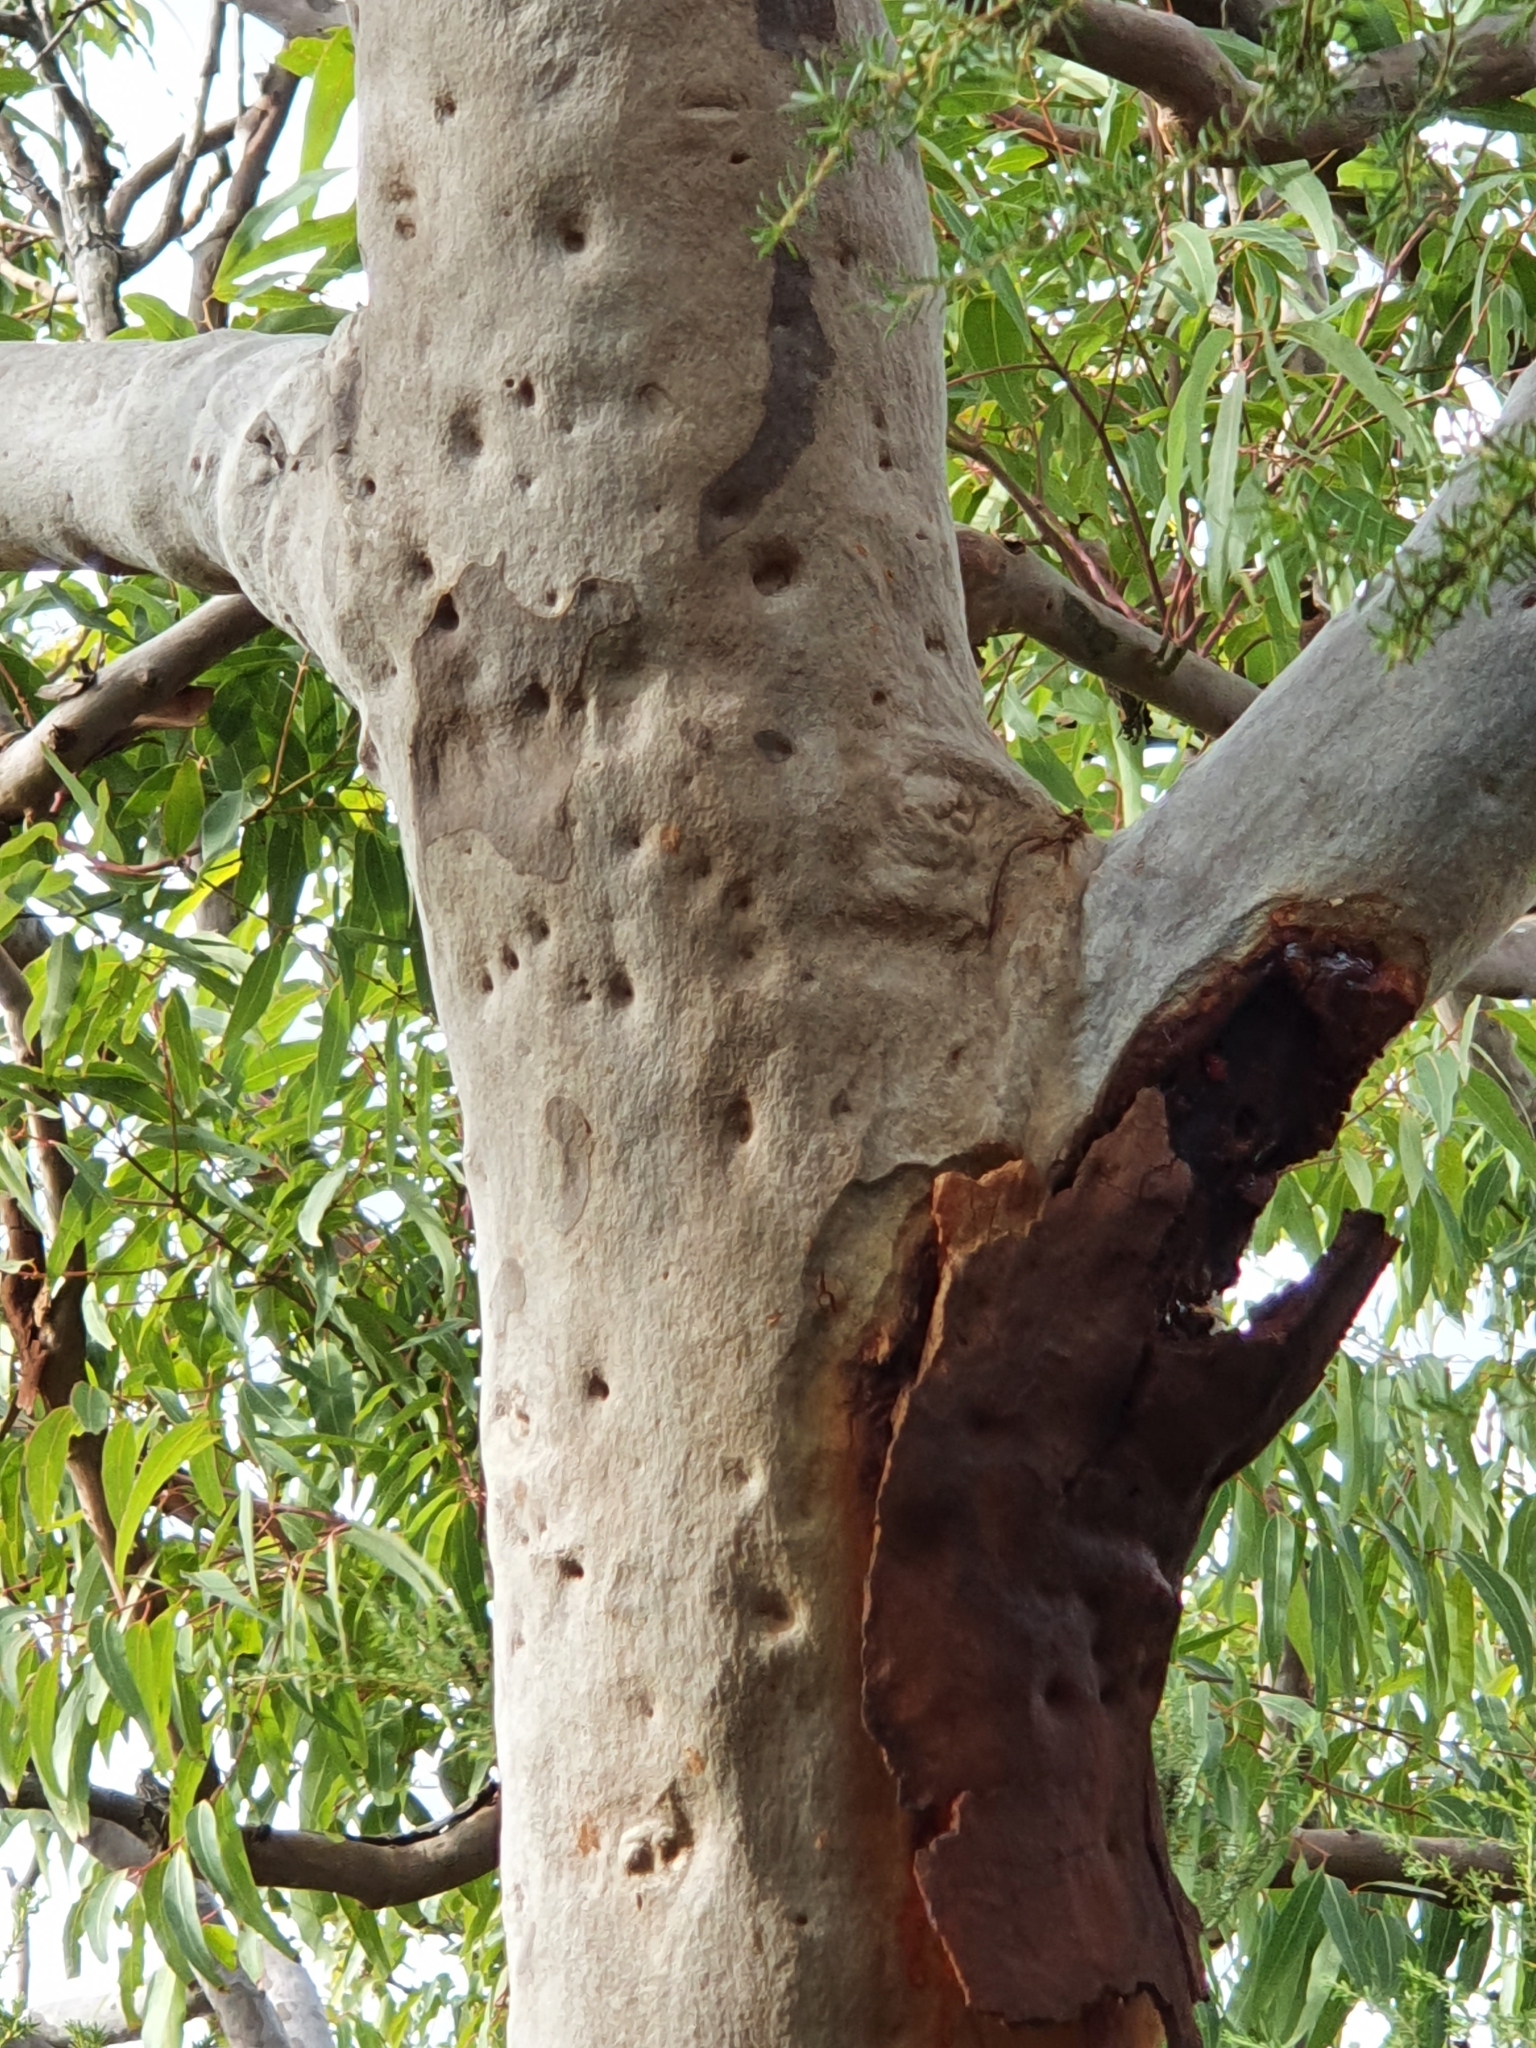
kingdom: Plantae
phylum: Tracheophyta
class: Magnoliopsida
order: Myrtales
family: Myrtaceae
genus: Angophora
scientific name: Angophora costata
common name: Gum myrtle
